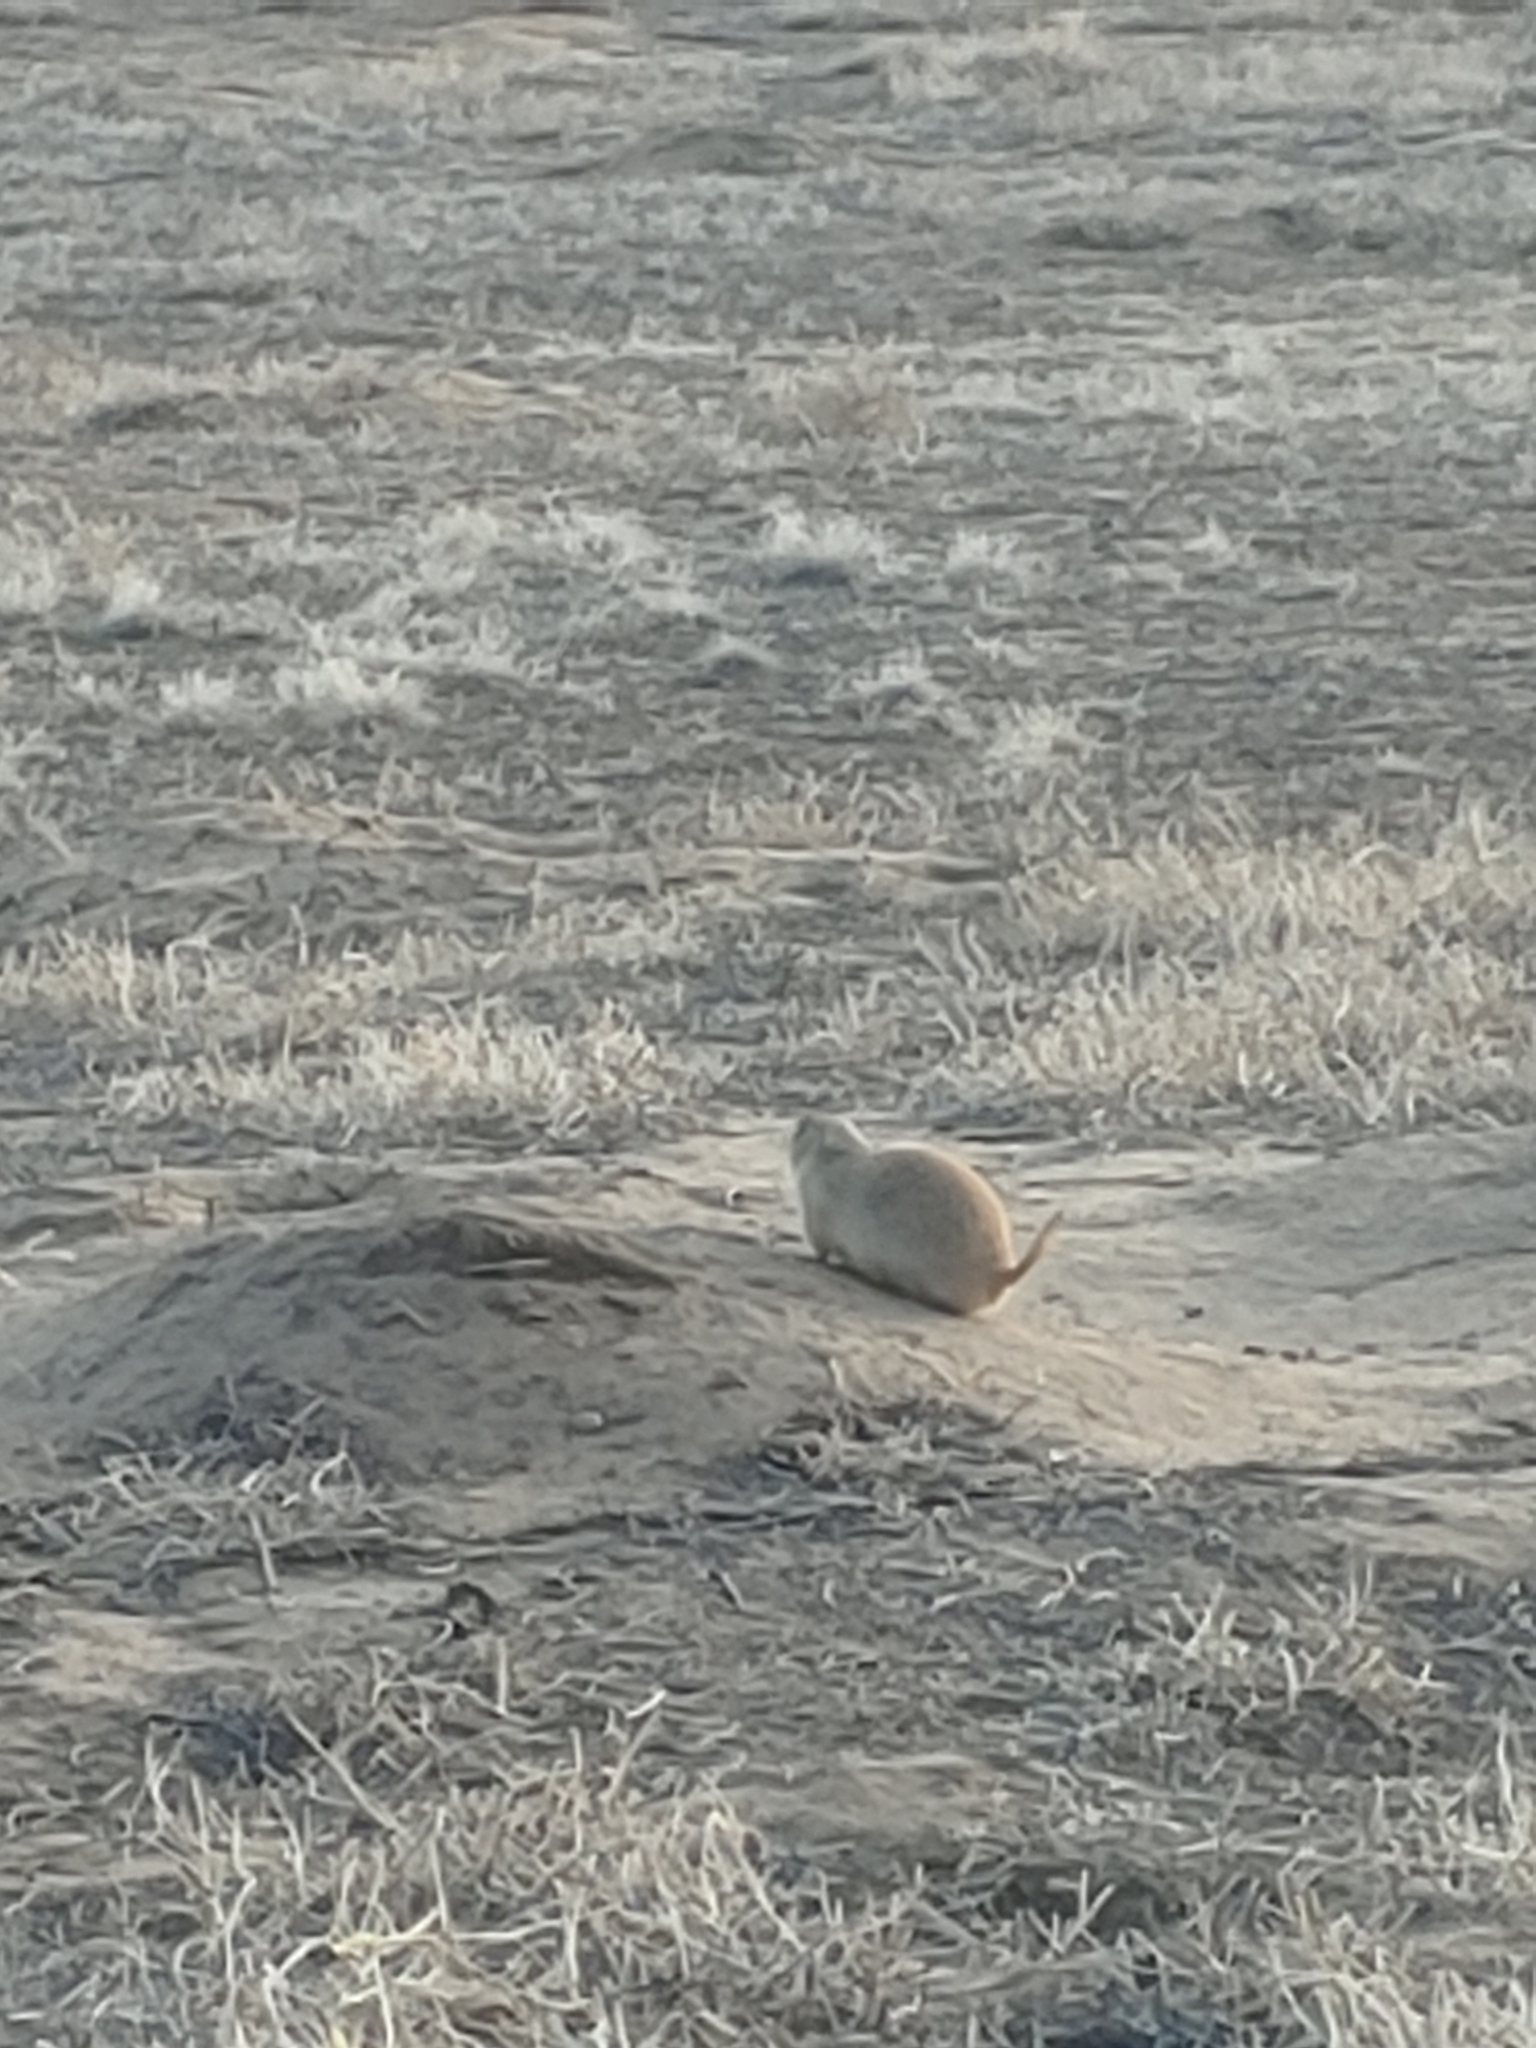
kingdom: Animalia
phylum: Chordata
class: Mammalia
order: Rodentia
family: Sciuridae
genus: Cynomys
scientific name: Cynomys ludovicianus
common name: Black-tailed prairie dog
